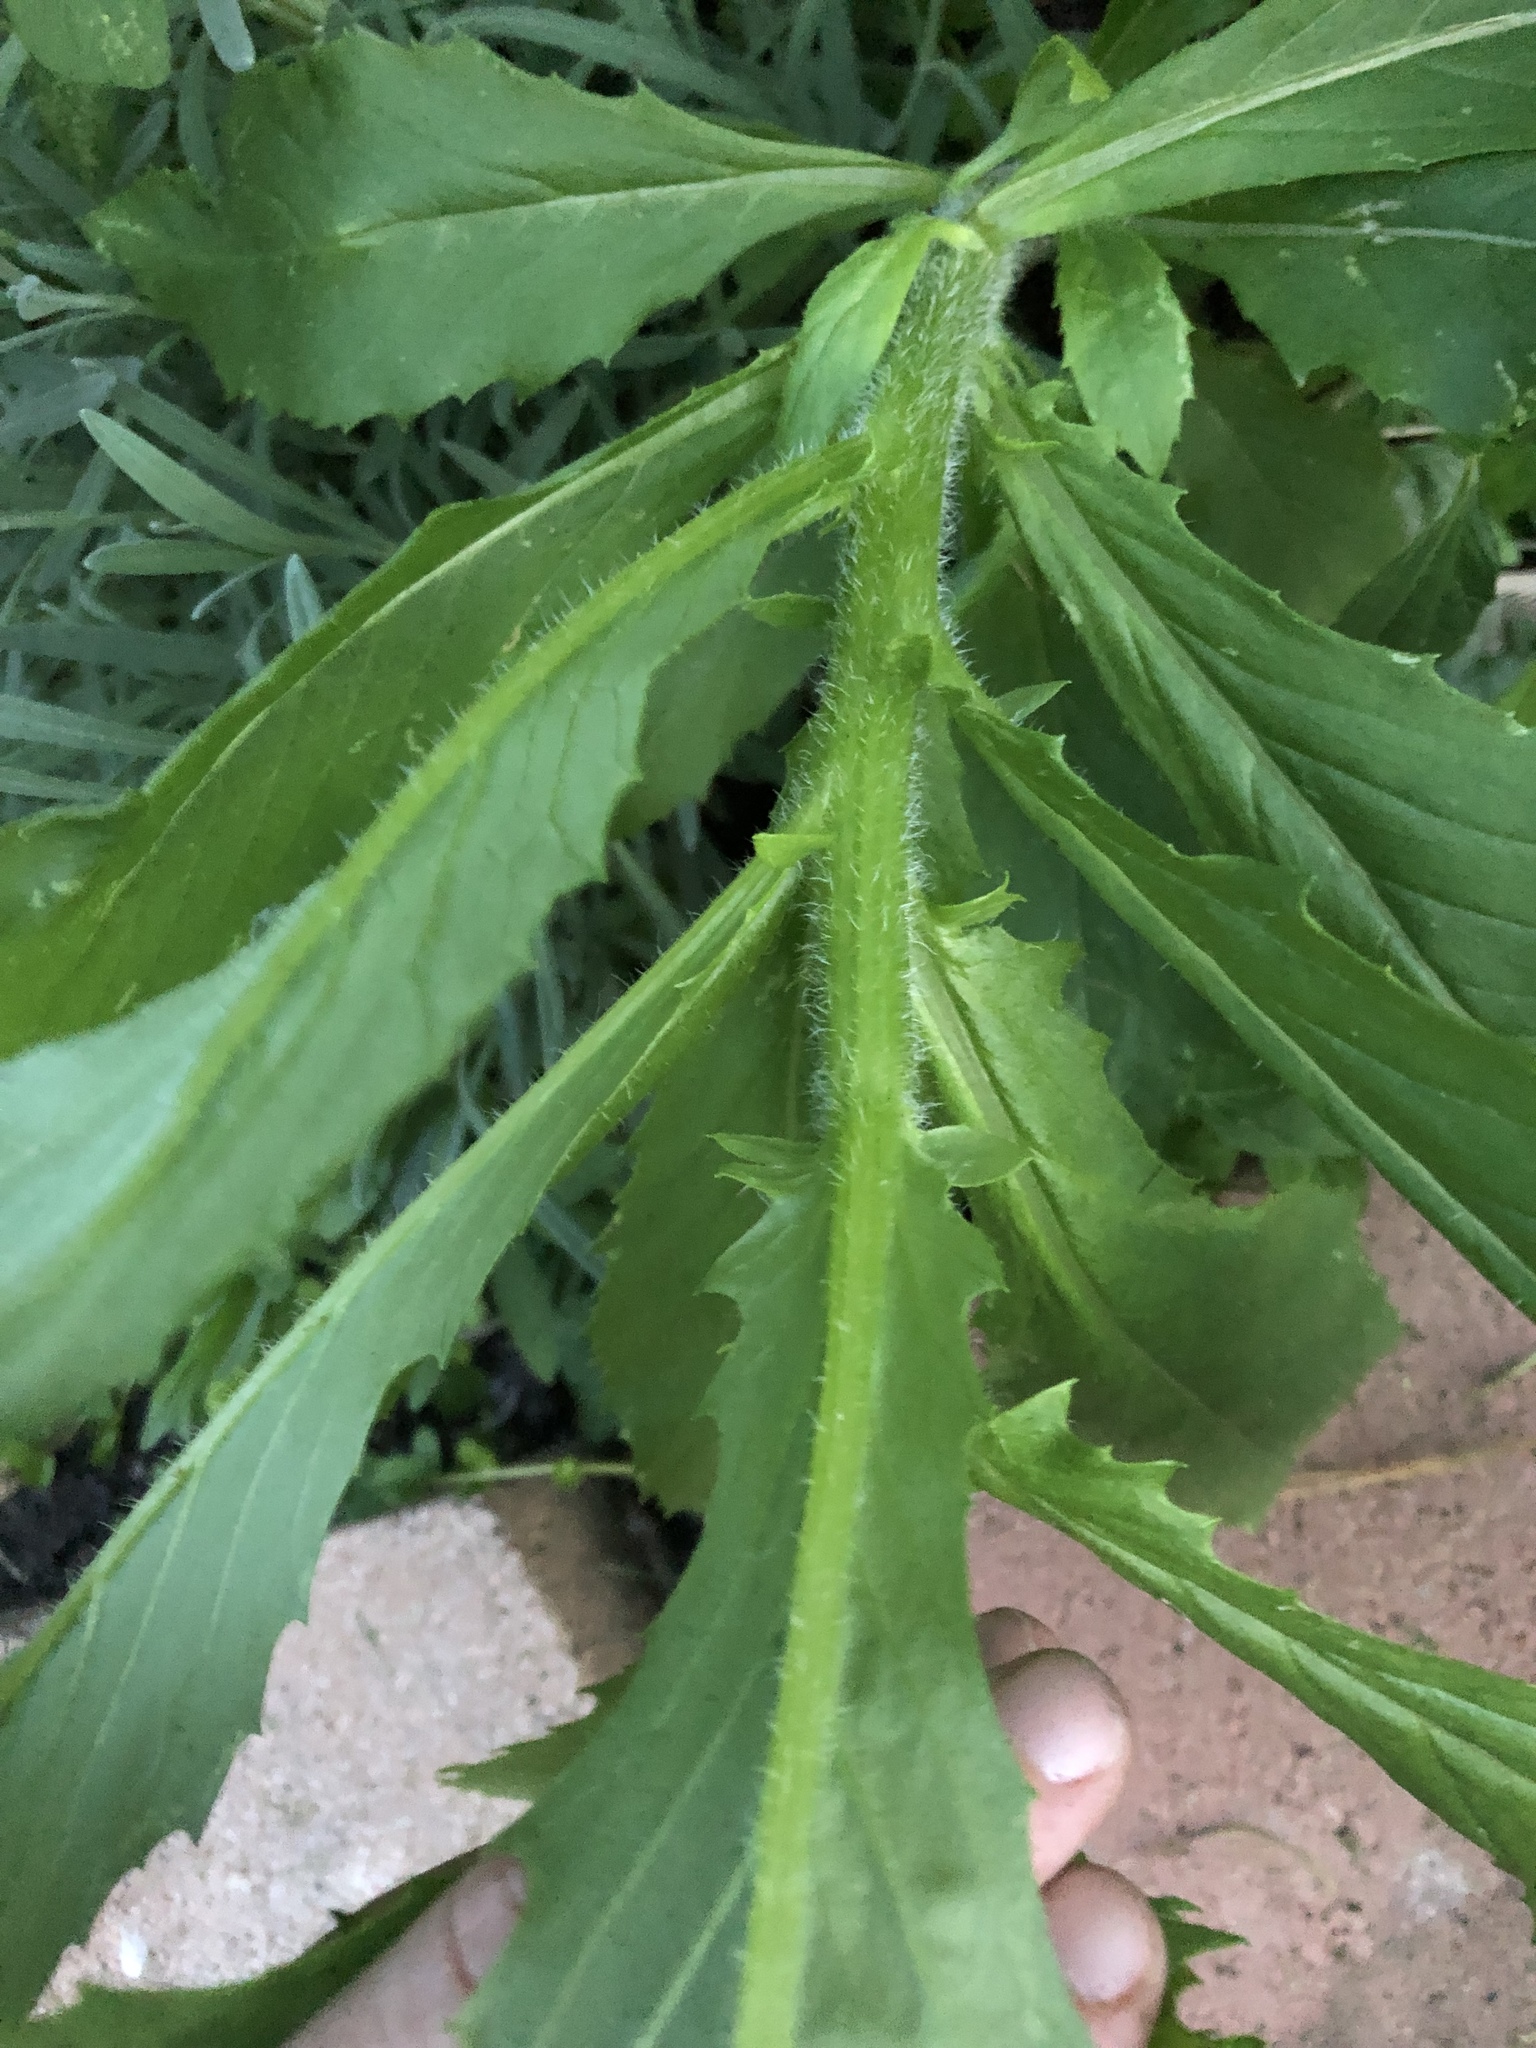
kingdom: Plantae
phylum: Tracheophyta
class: Magnoliopsida
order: Asterales
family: Asteraceae
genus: Erechtites
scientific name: Erechtites hieraciifolius
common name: American burnweed
